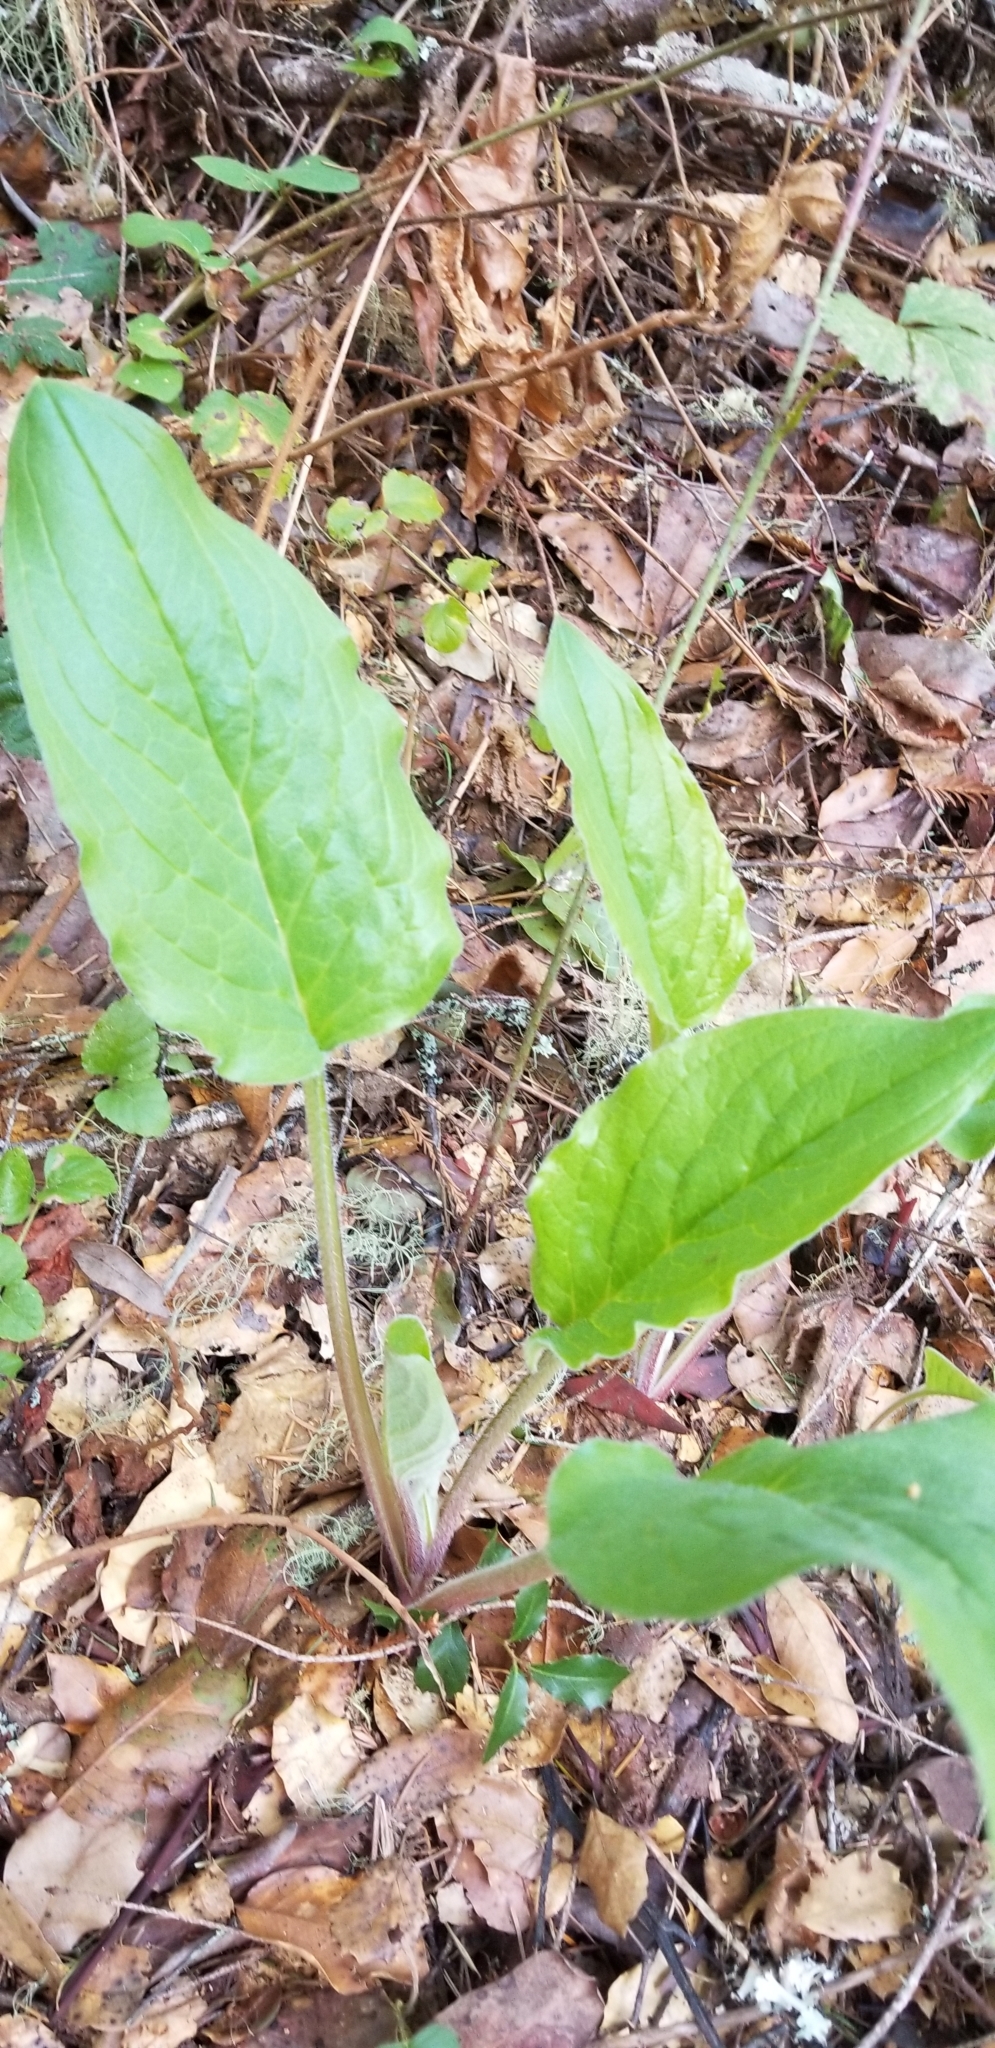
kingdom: Plantae
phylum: Tracheophyta
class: Magnoliopsida
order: Boraginales
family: Boraginaceae
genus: Adelinia
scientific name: Adelinia grande
